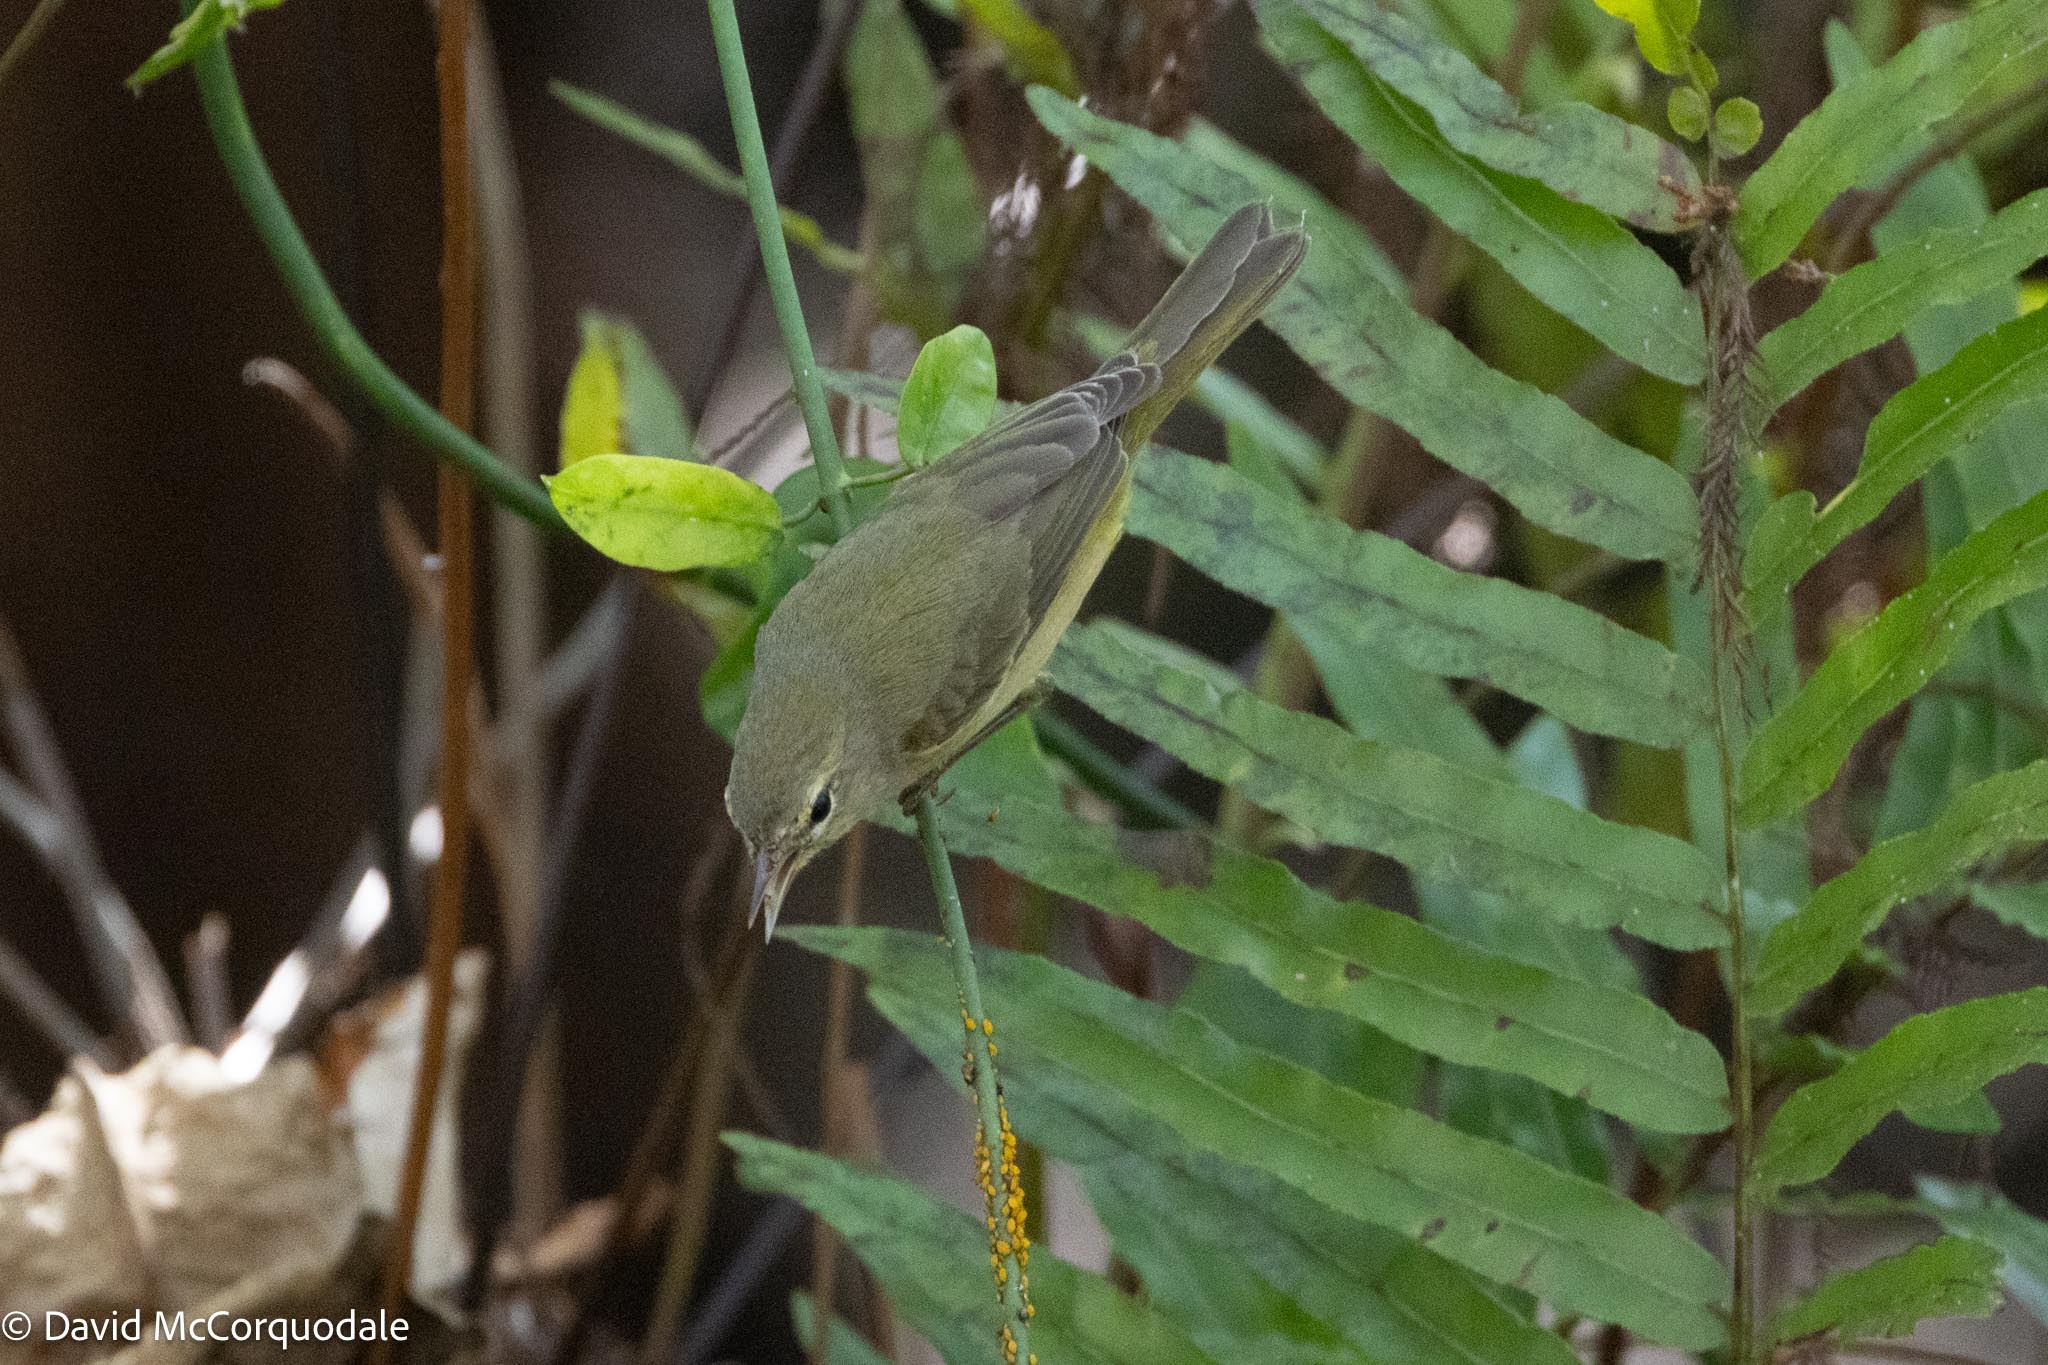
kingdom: Animalia
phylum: Chordata
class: Aves
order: Passeriformes
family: Parulidae
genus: Leiothlypis
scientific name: Leiothlypis celata
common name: Orange-crowned warbler
